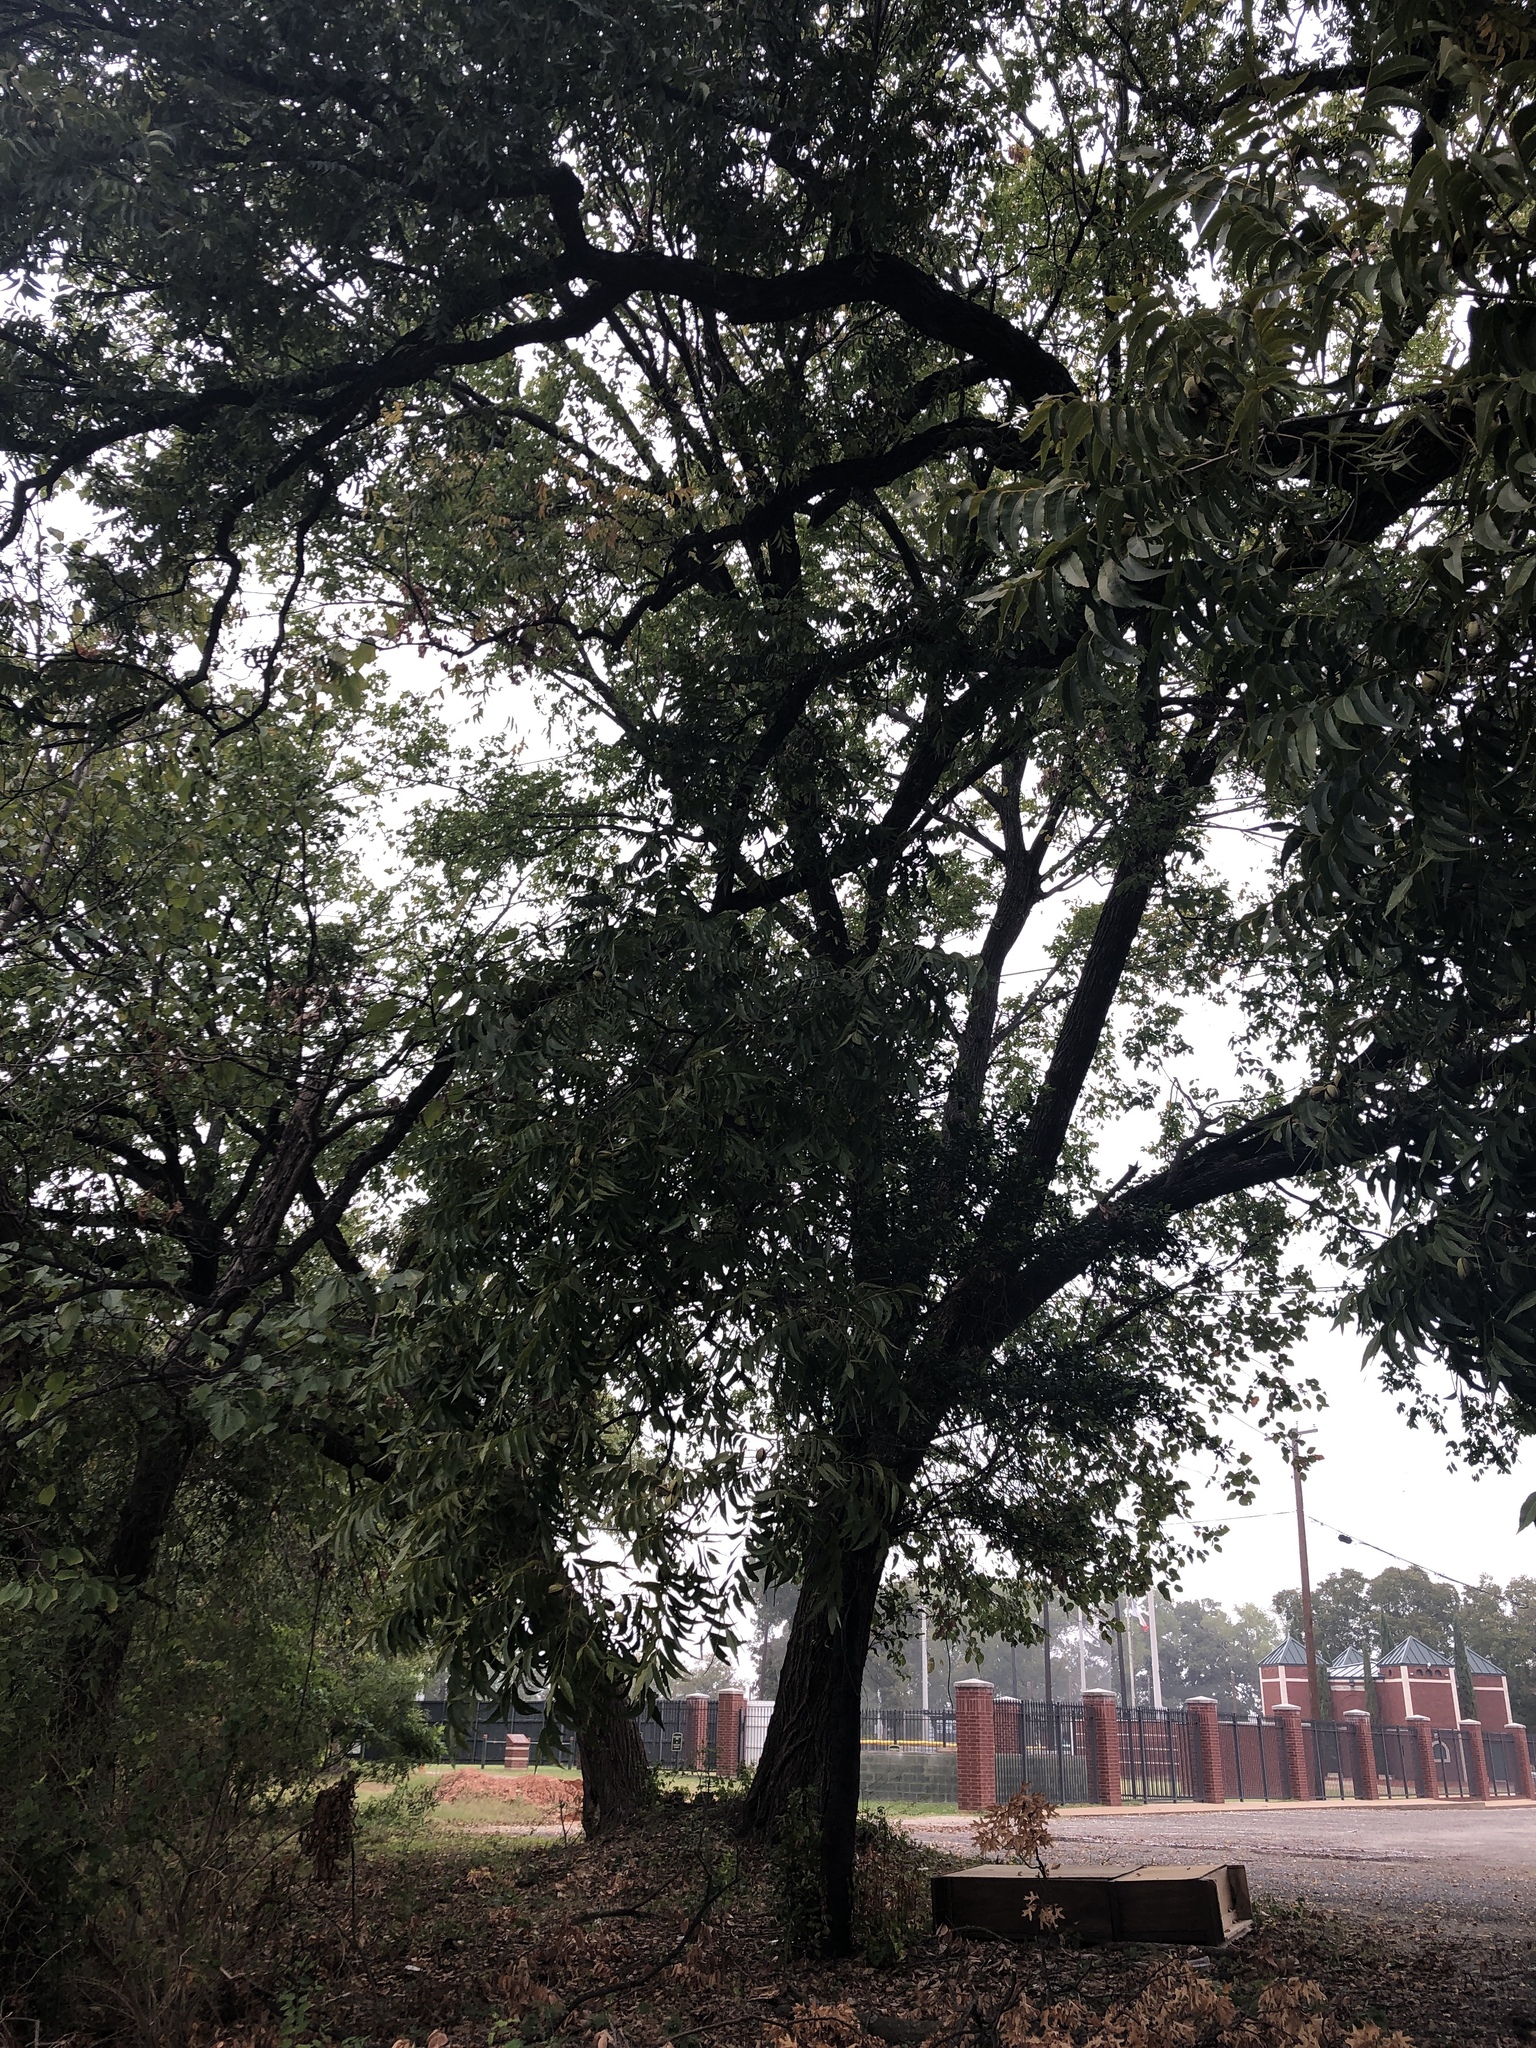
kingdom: Plantae
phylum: Tracheophyta
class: Magnoliopsida
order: Fagales
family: Juglandaceae
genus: Carya
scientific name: Carya illinoinensis
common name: Pecan
